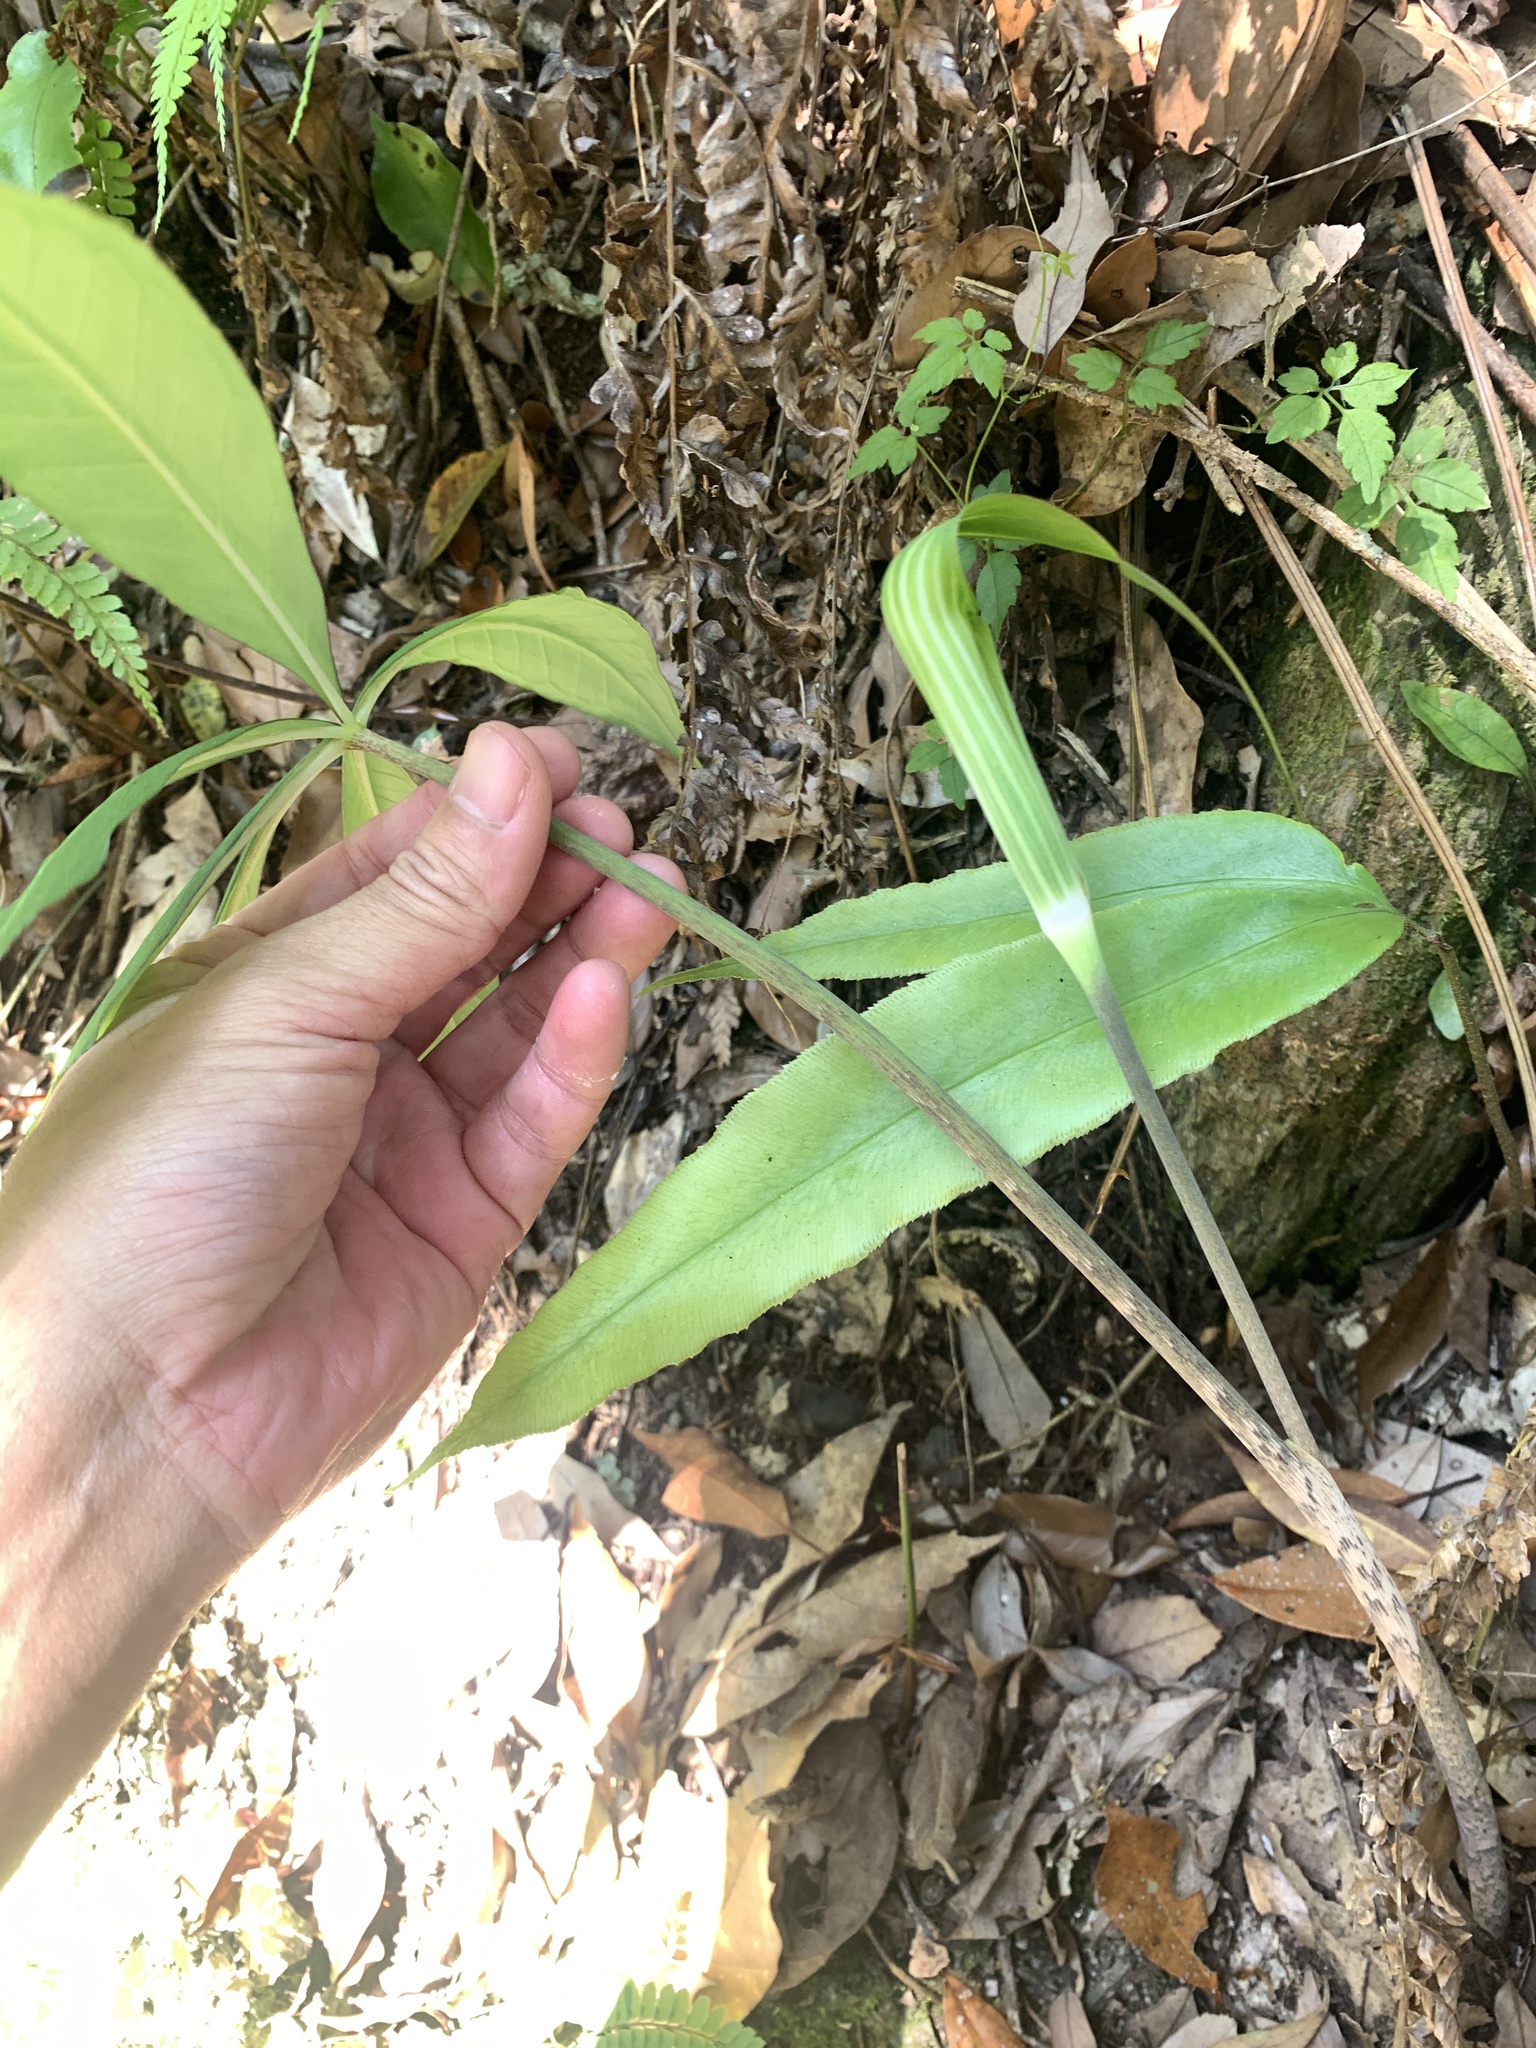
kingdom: Plantae
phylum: Tracheophyta
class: Liliopsida
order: Alismatales
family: Araceae
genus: Arisaema
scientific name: Arisaema formosanum
